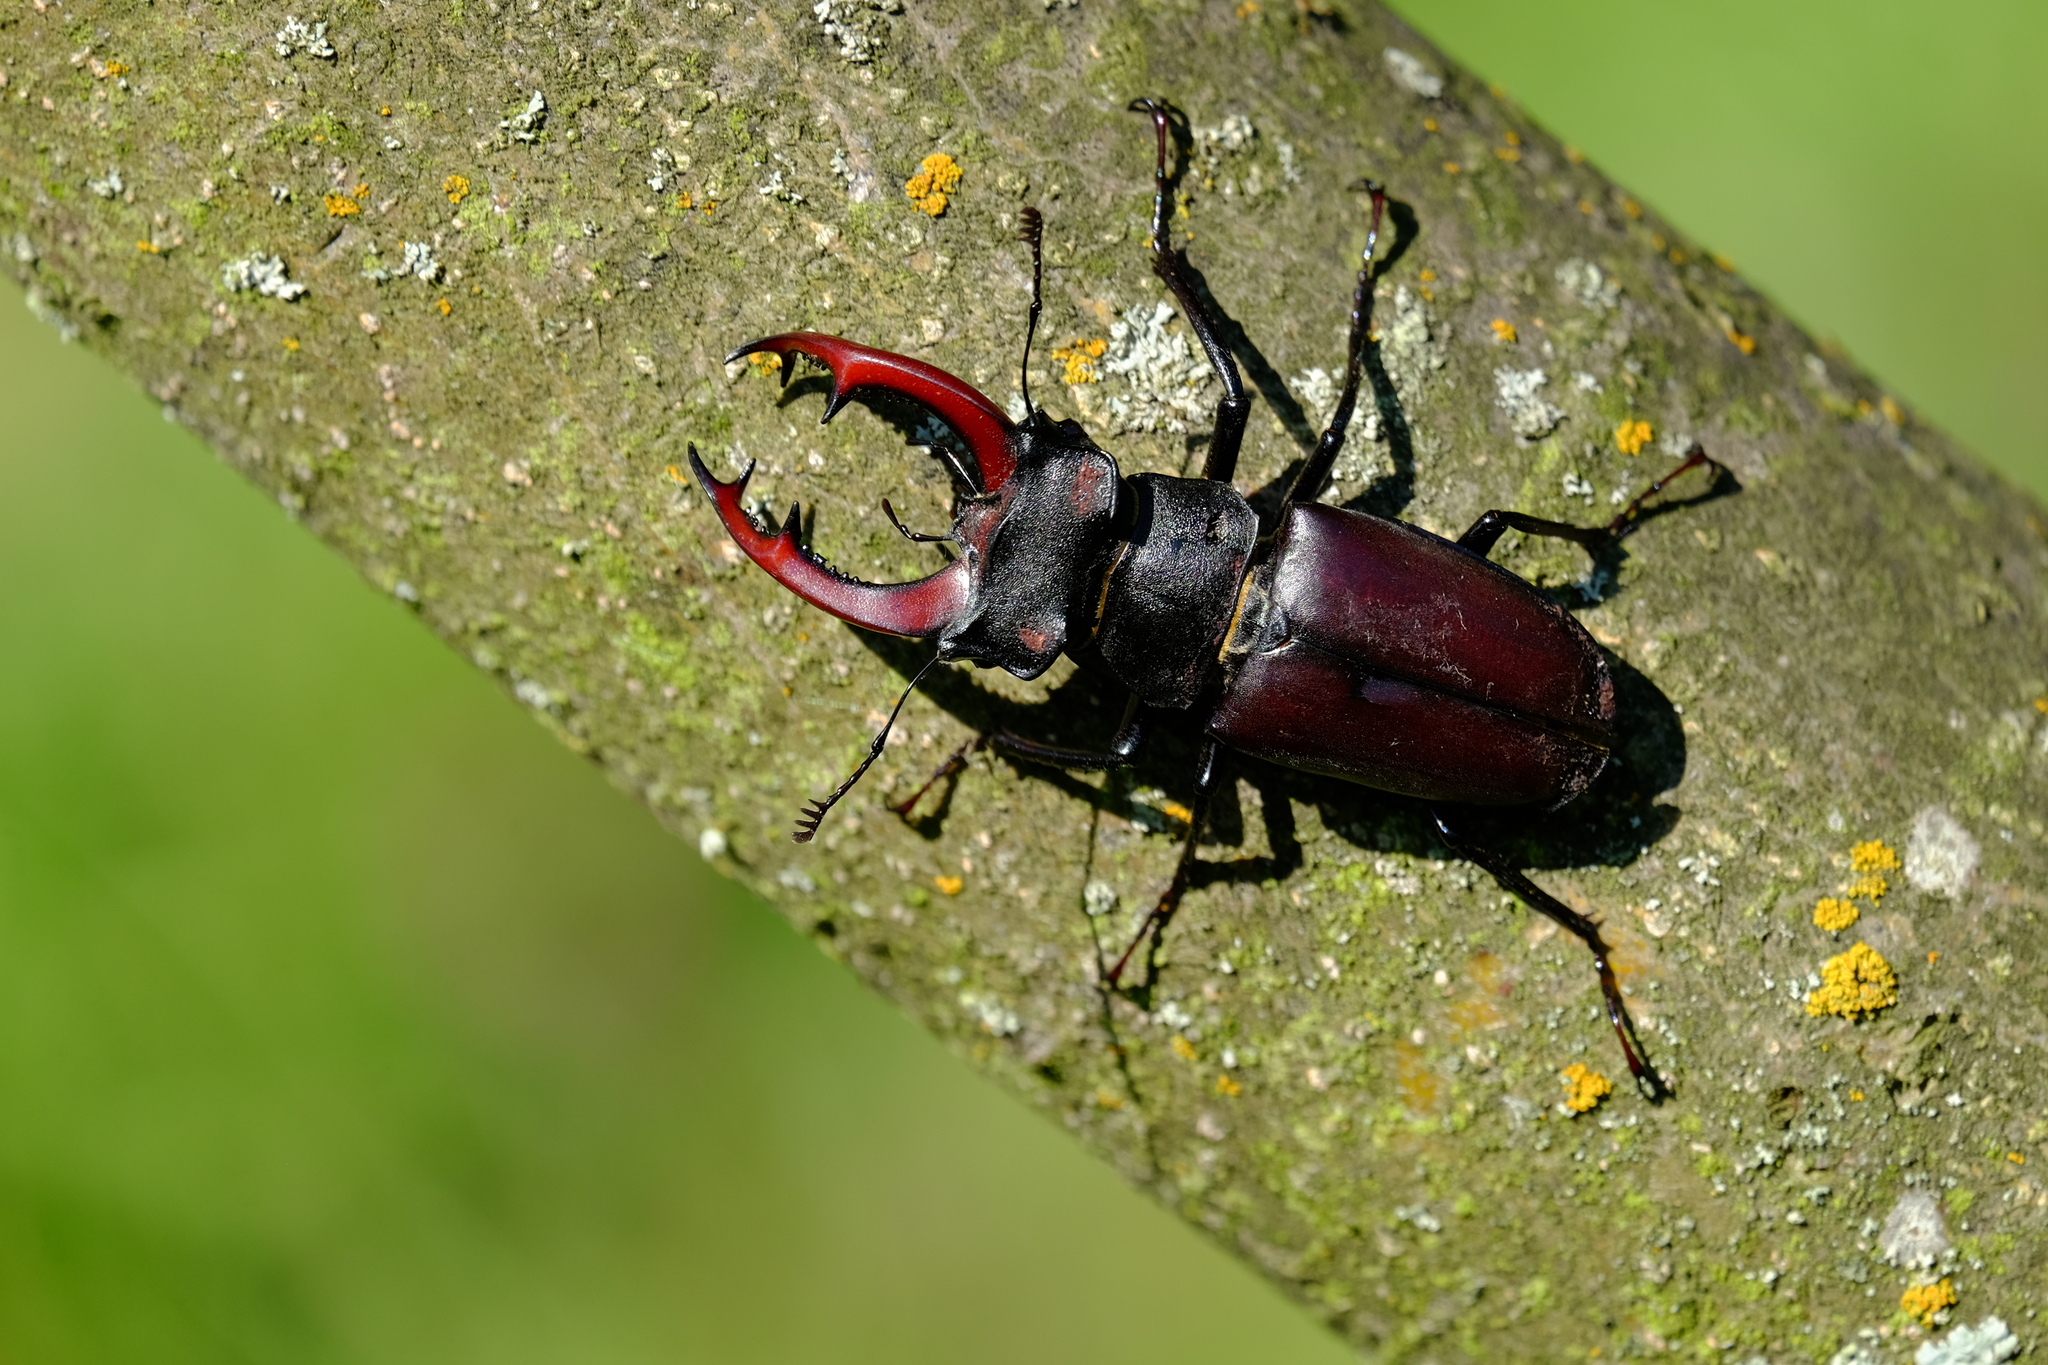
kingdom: Animalia
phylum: Arthropoda
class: Insecta
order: Coleoptera
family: Lucanidae
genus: Lucanus
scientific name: Lucanus cervus
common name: Stag beetle
